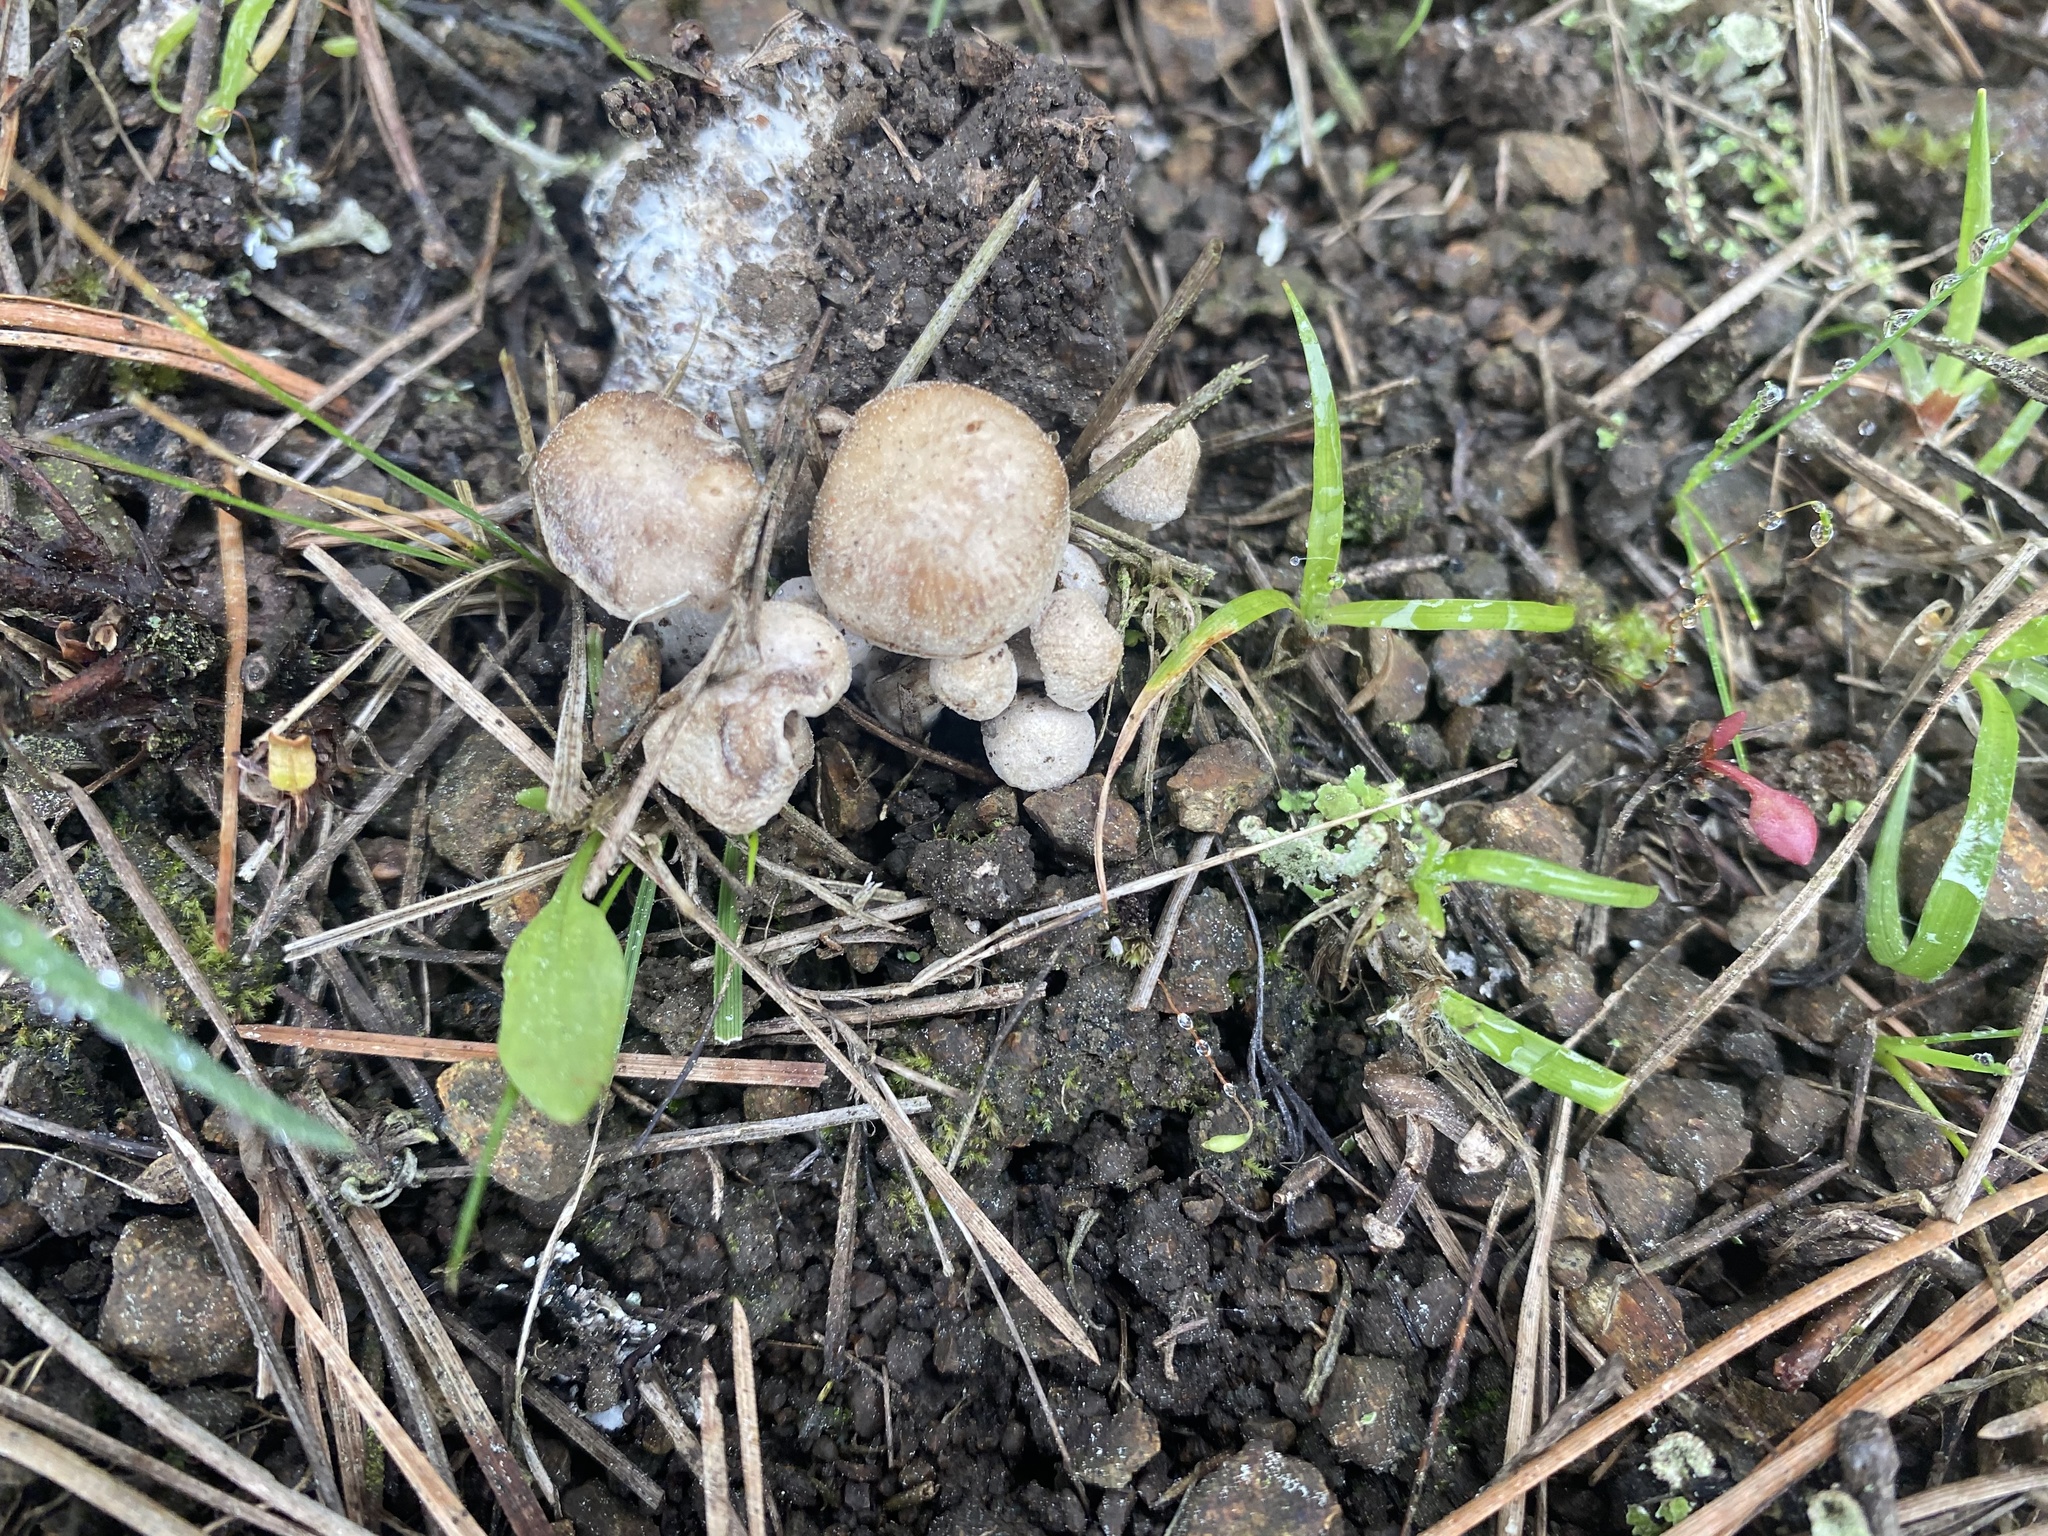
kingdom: Fungi
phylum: Basidiomycota
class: Agaricomycetes
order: Agaricales
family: Tricholomataceae
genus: Clitocybe
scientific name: Clitocybe sclerotoidea
